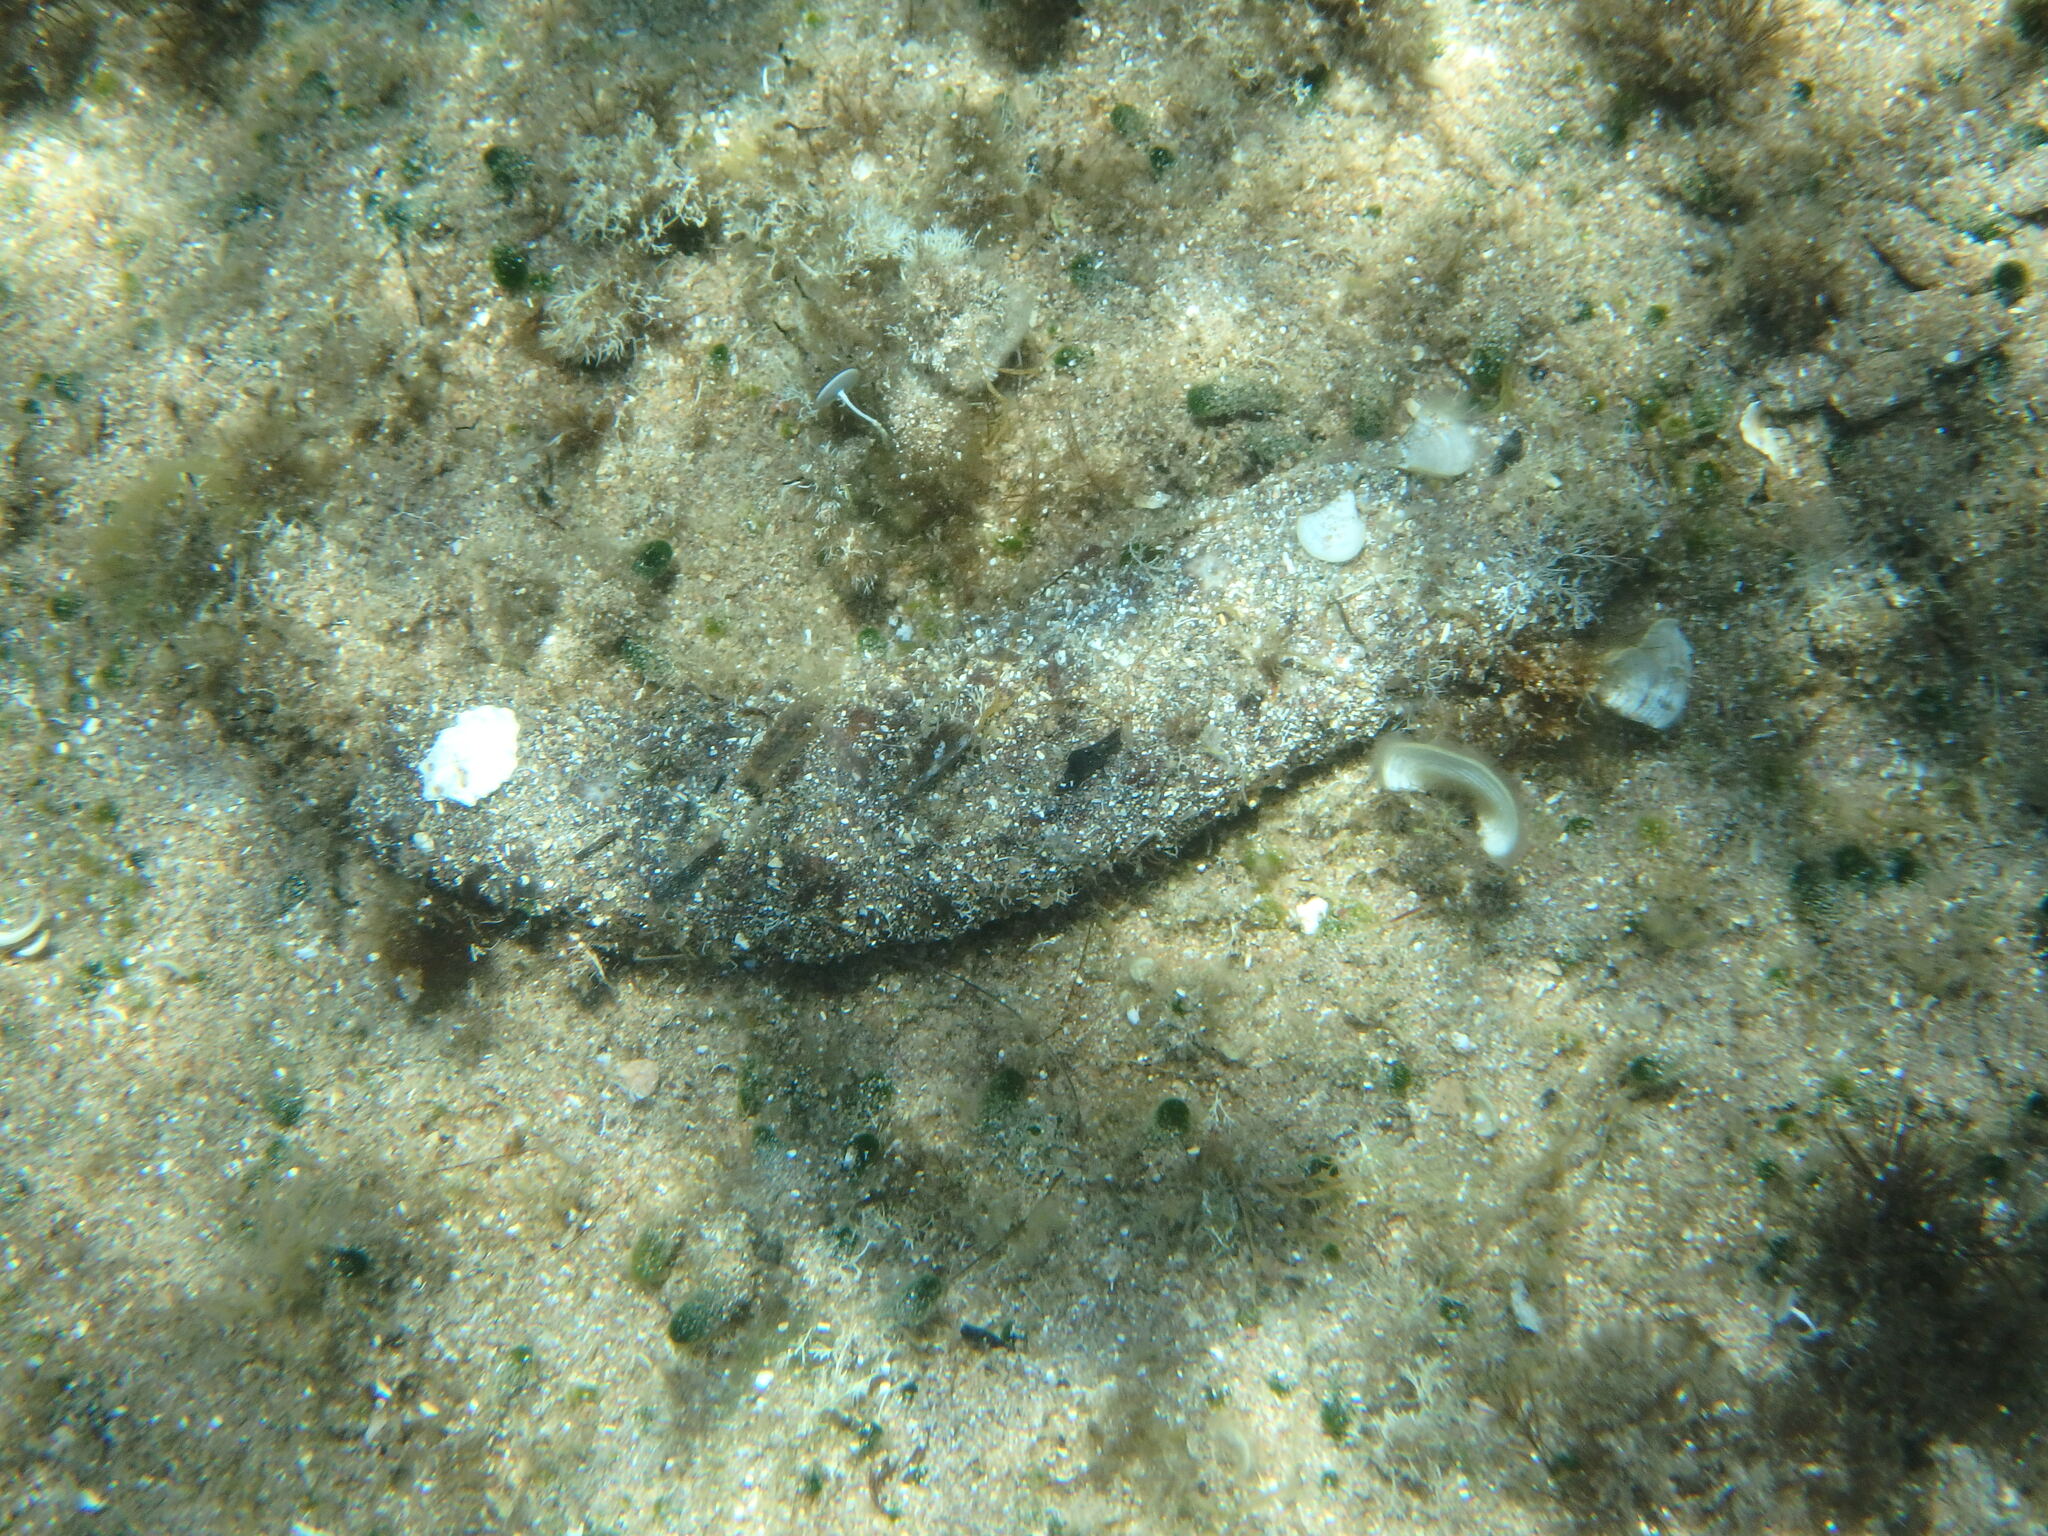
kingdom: Animalia
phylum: Echinodermata
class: Holothuroidea
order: Holothuriida
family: Holothuriidae
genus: Holothuria
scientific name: Holothuria poli
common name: White spot cucumber
